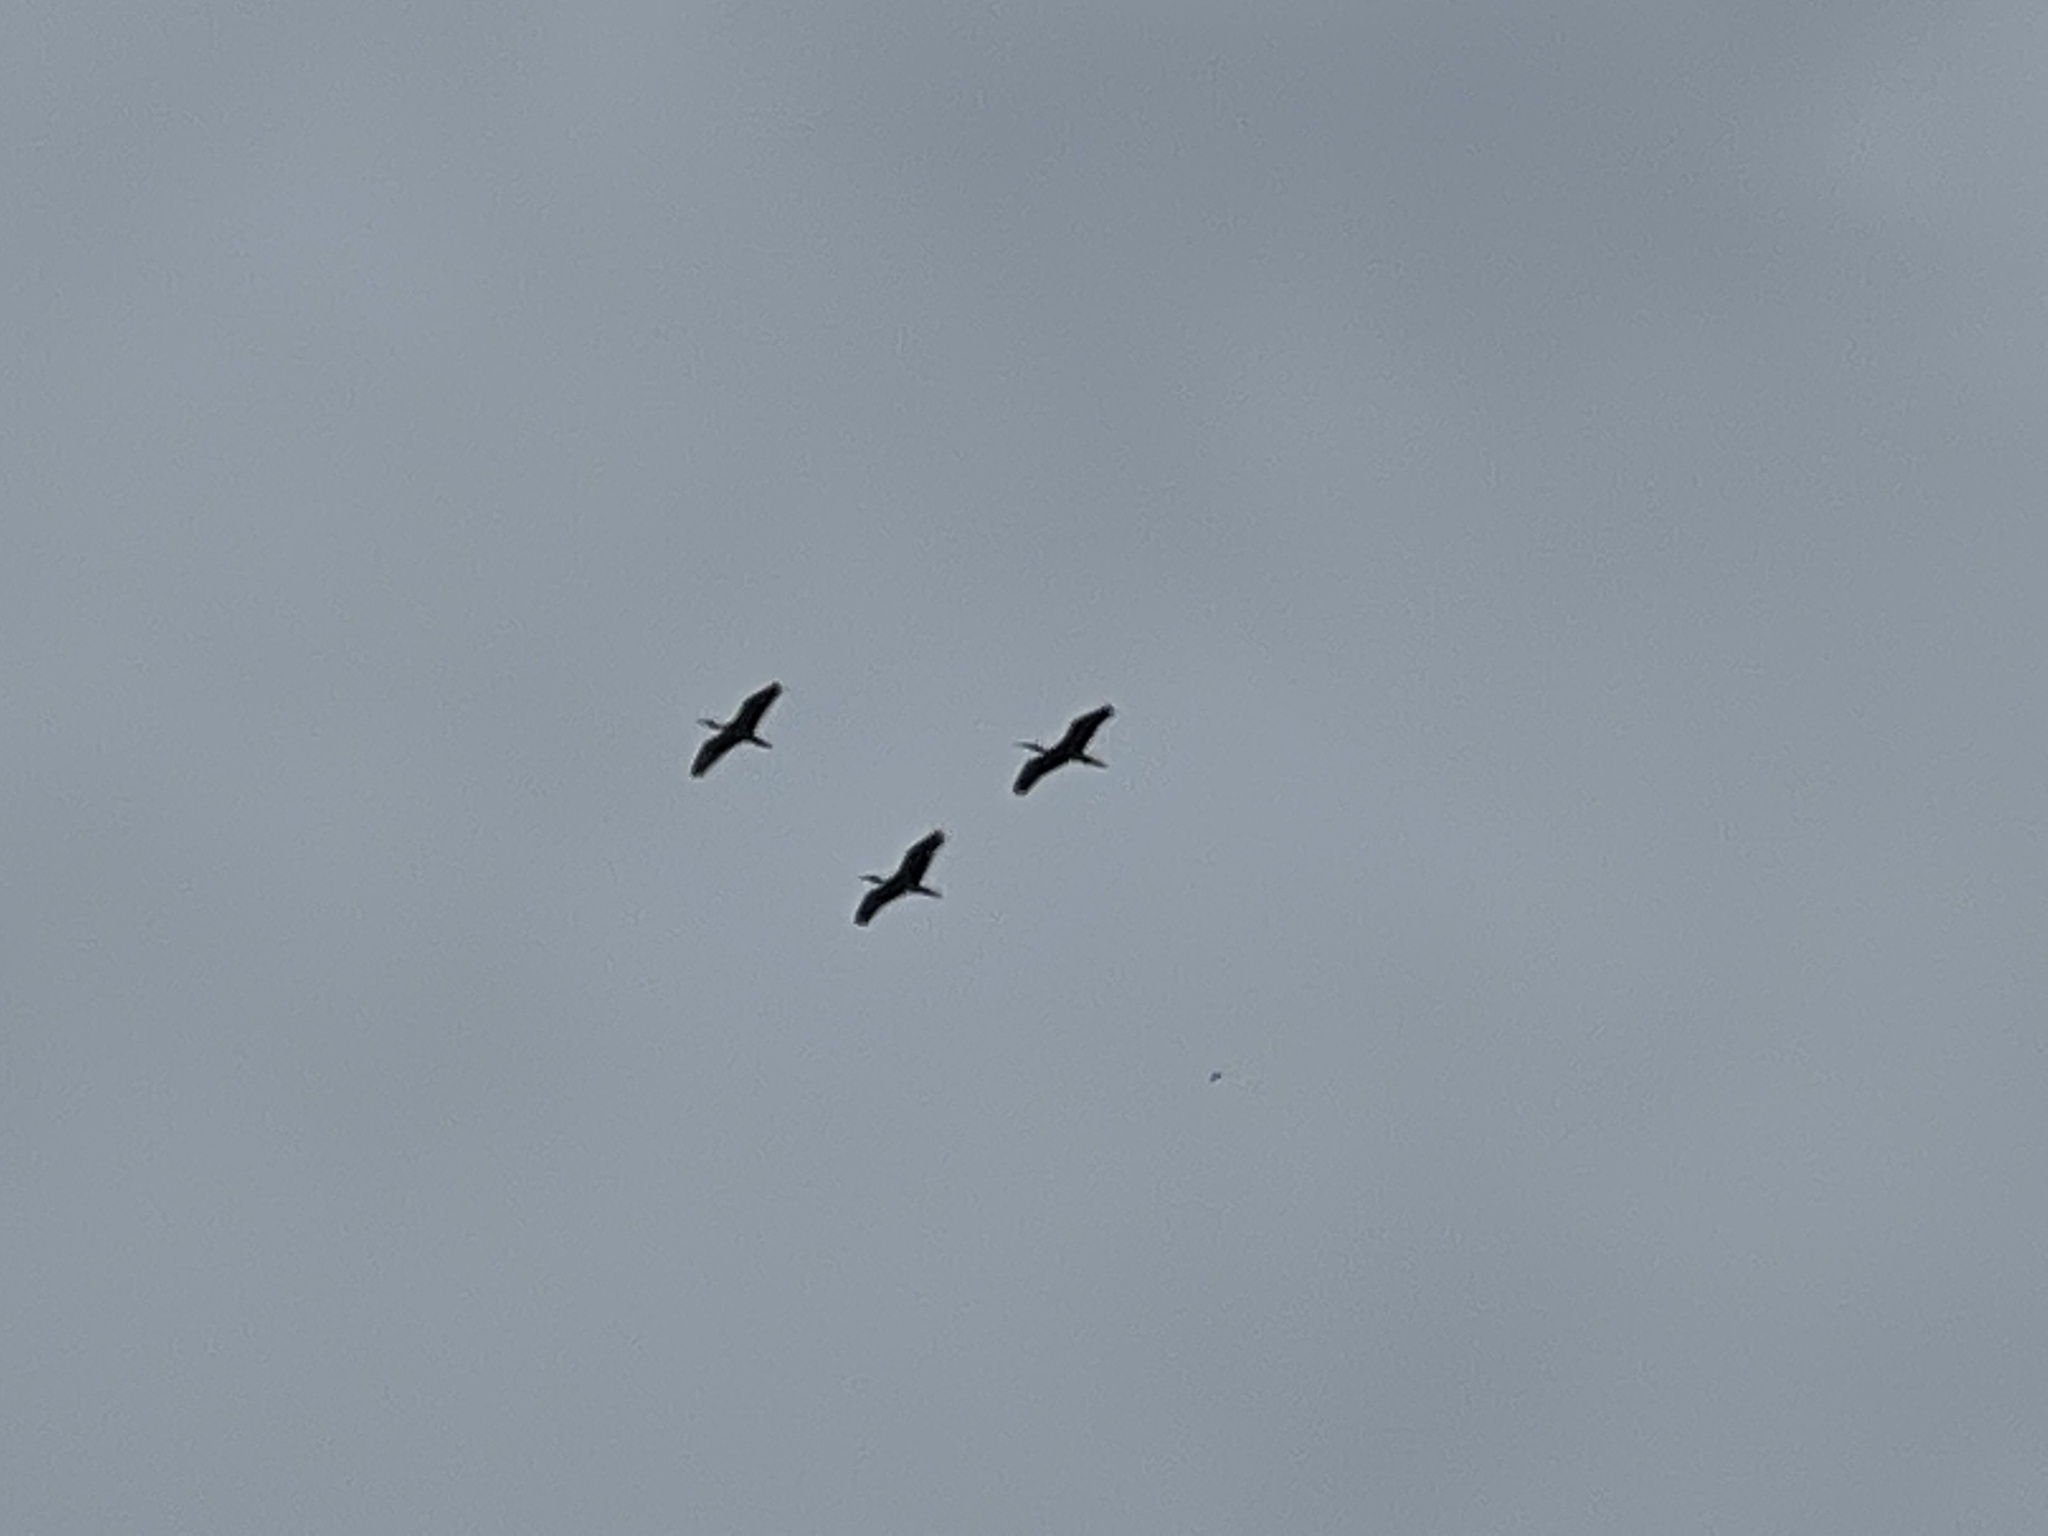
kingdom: Animalia
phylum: Chordata
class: Aves
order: Pelecaniformes
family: Threskiornithidae
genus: Eudocimus
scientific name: Eudocimus albus
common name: White ibis
